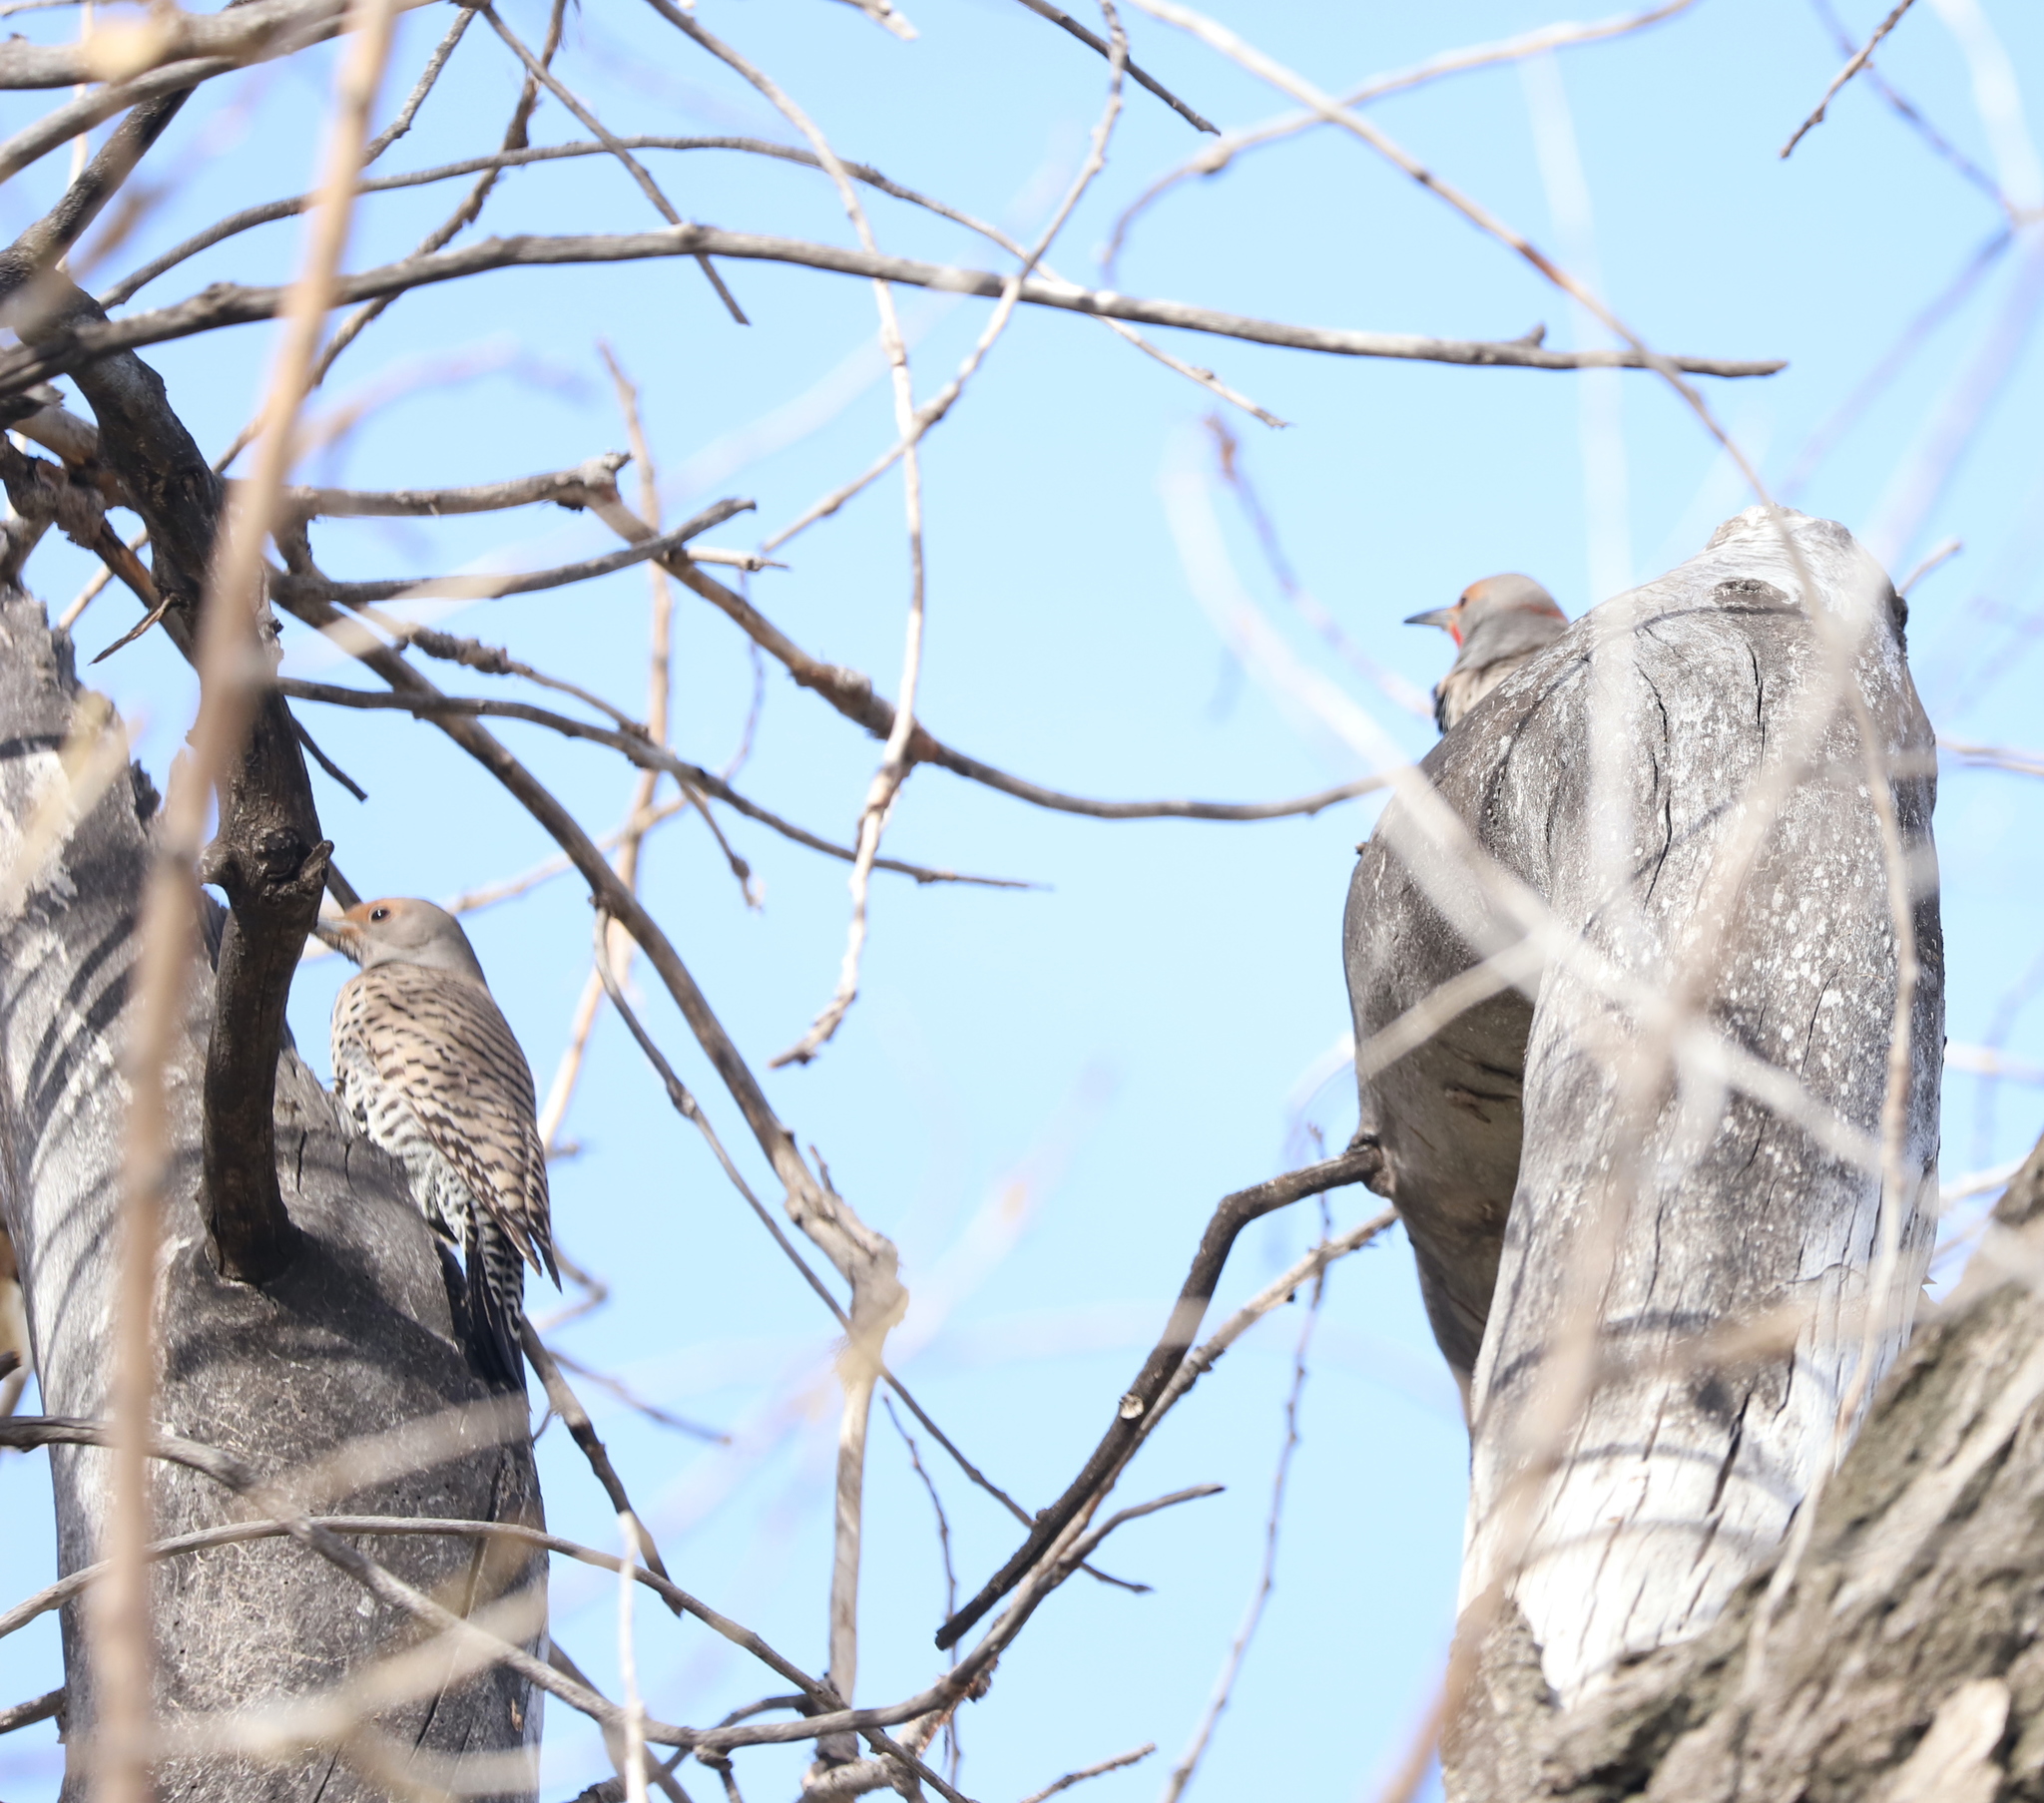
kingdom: Animalia
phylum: Chordata
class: Aves
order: Piciformes
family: Picidae
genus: Colaptes
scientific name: Colaptes auratus
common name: Northern flicker
